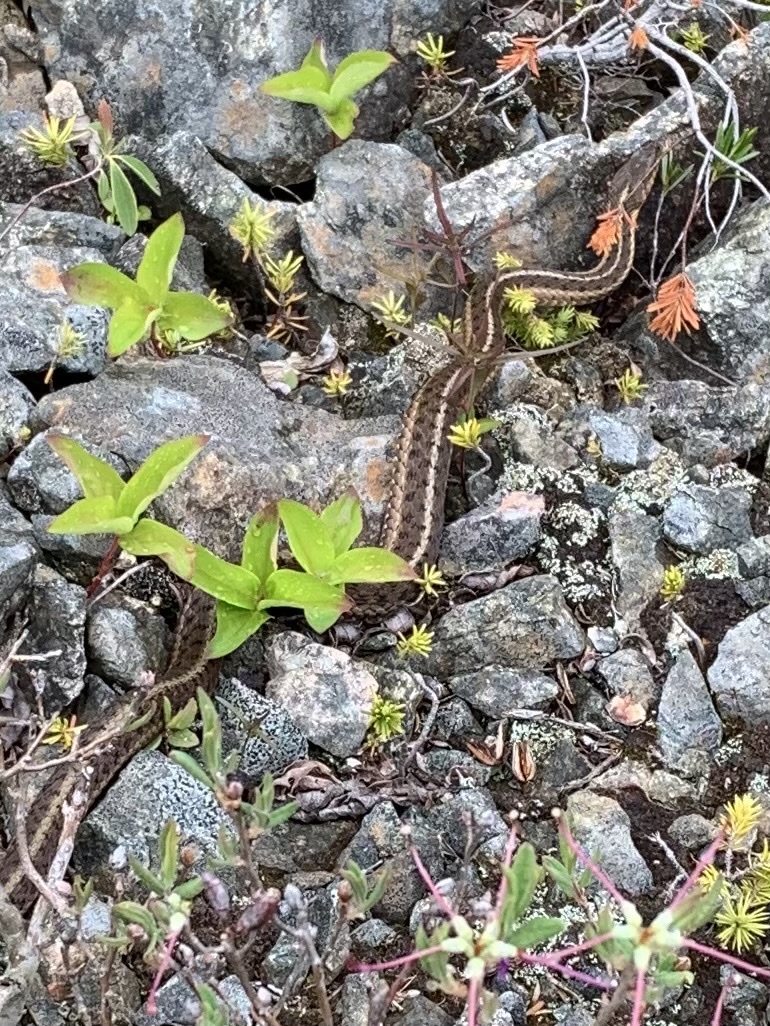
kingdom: Animalia
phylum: Chordata
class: Squamata
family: Colubridae
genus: Thamnophis
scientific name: Thamnophis sirtalis
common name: Common garter snake
